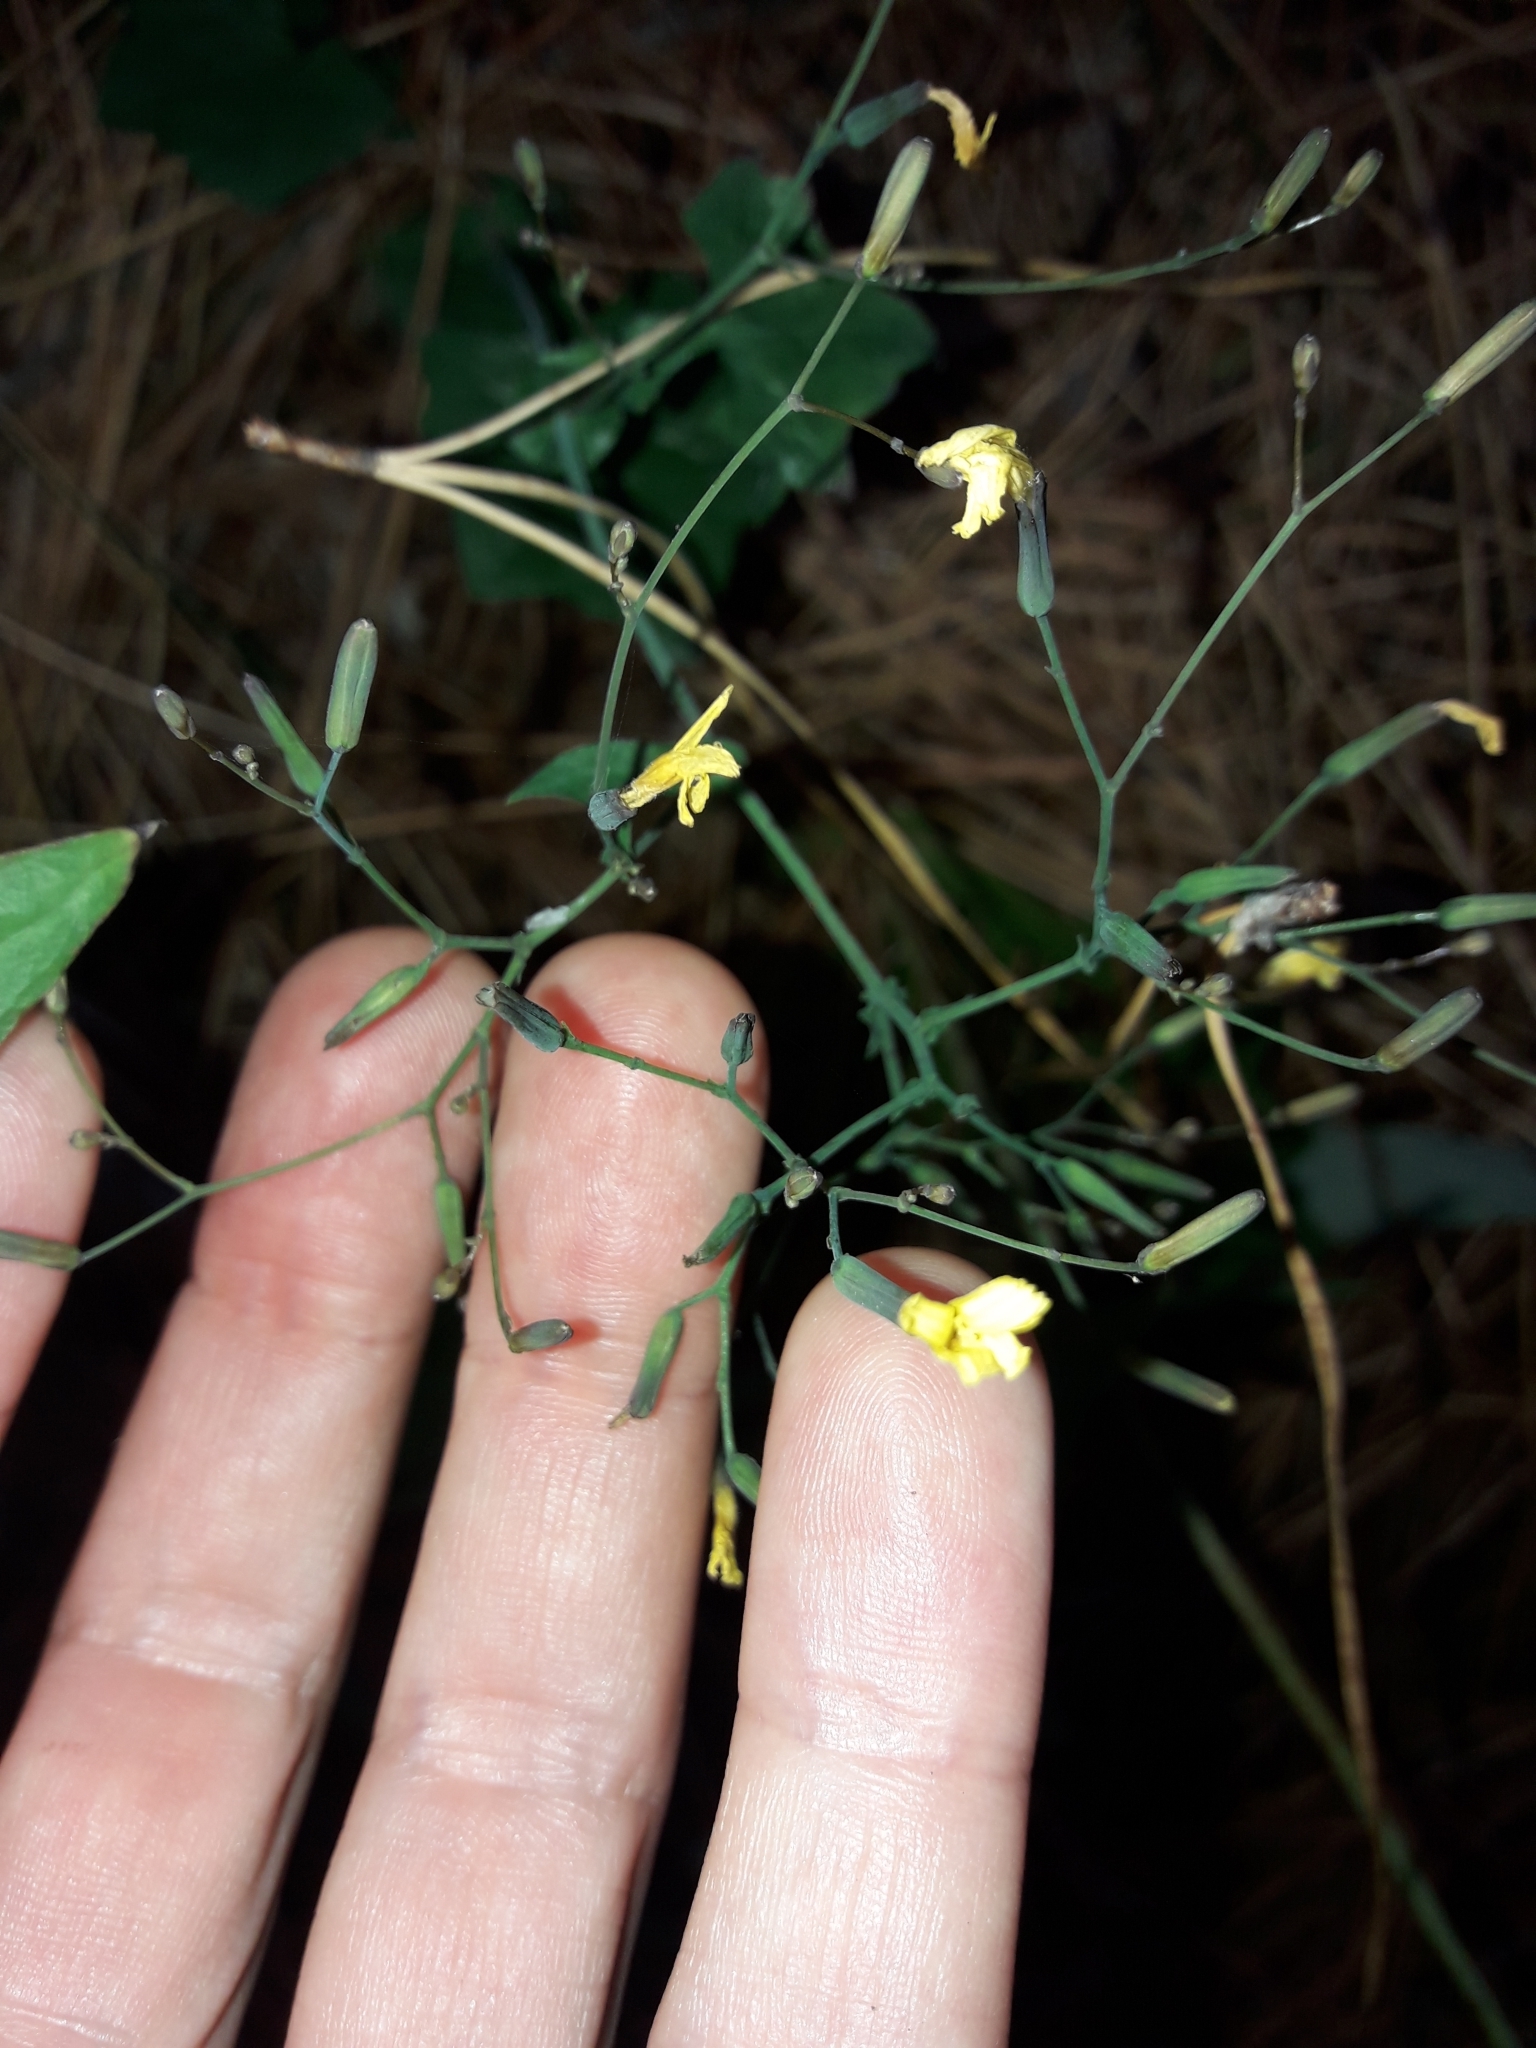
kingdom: Plantae
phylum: Tracheophyta
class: Magnoliopsida
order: Asterales
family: Asteraceae
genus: Mycelis
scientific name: Mycelis muralis
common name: Wall lettuce
